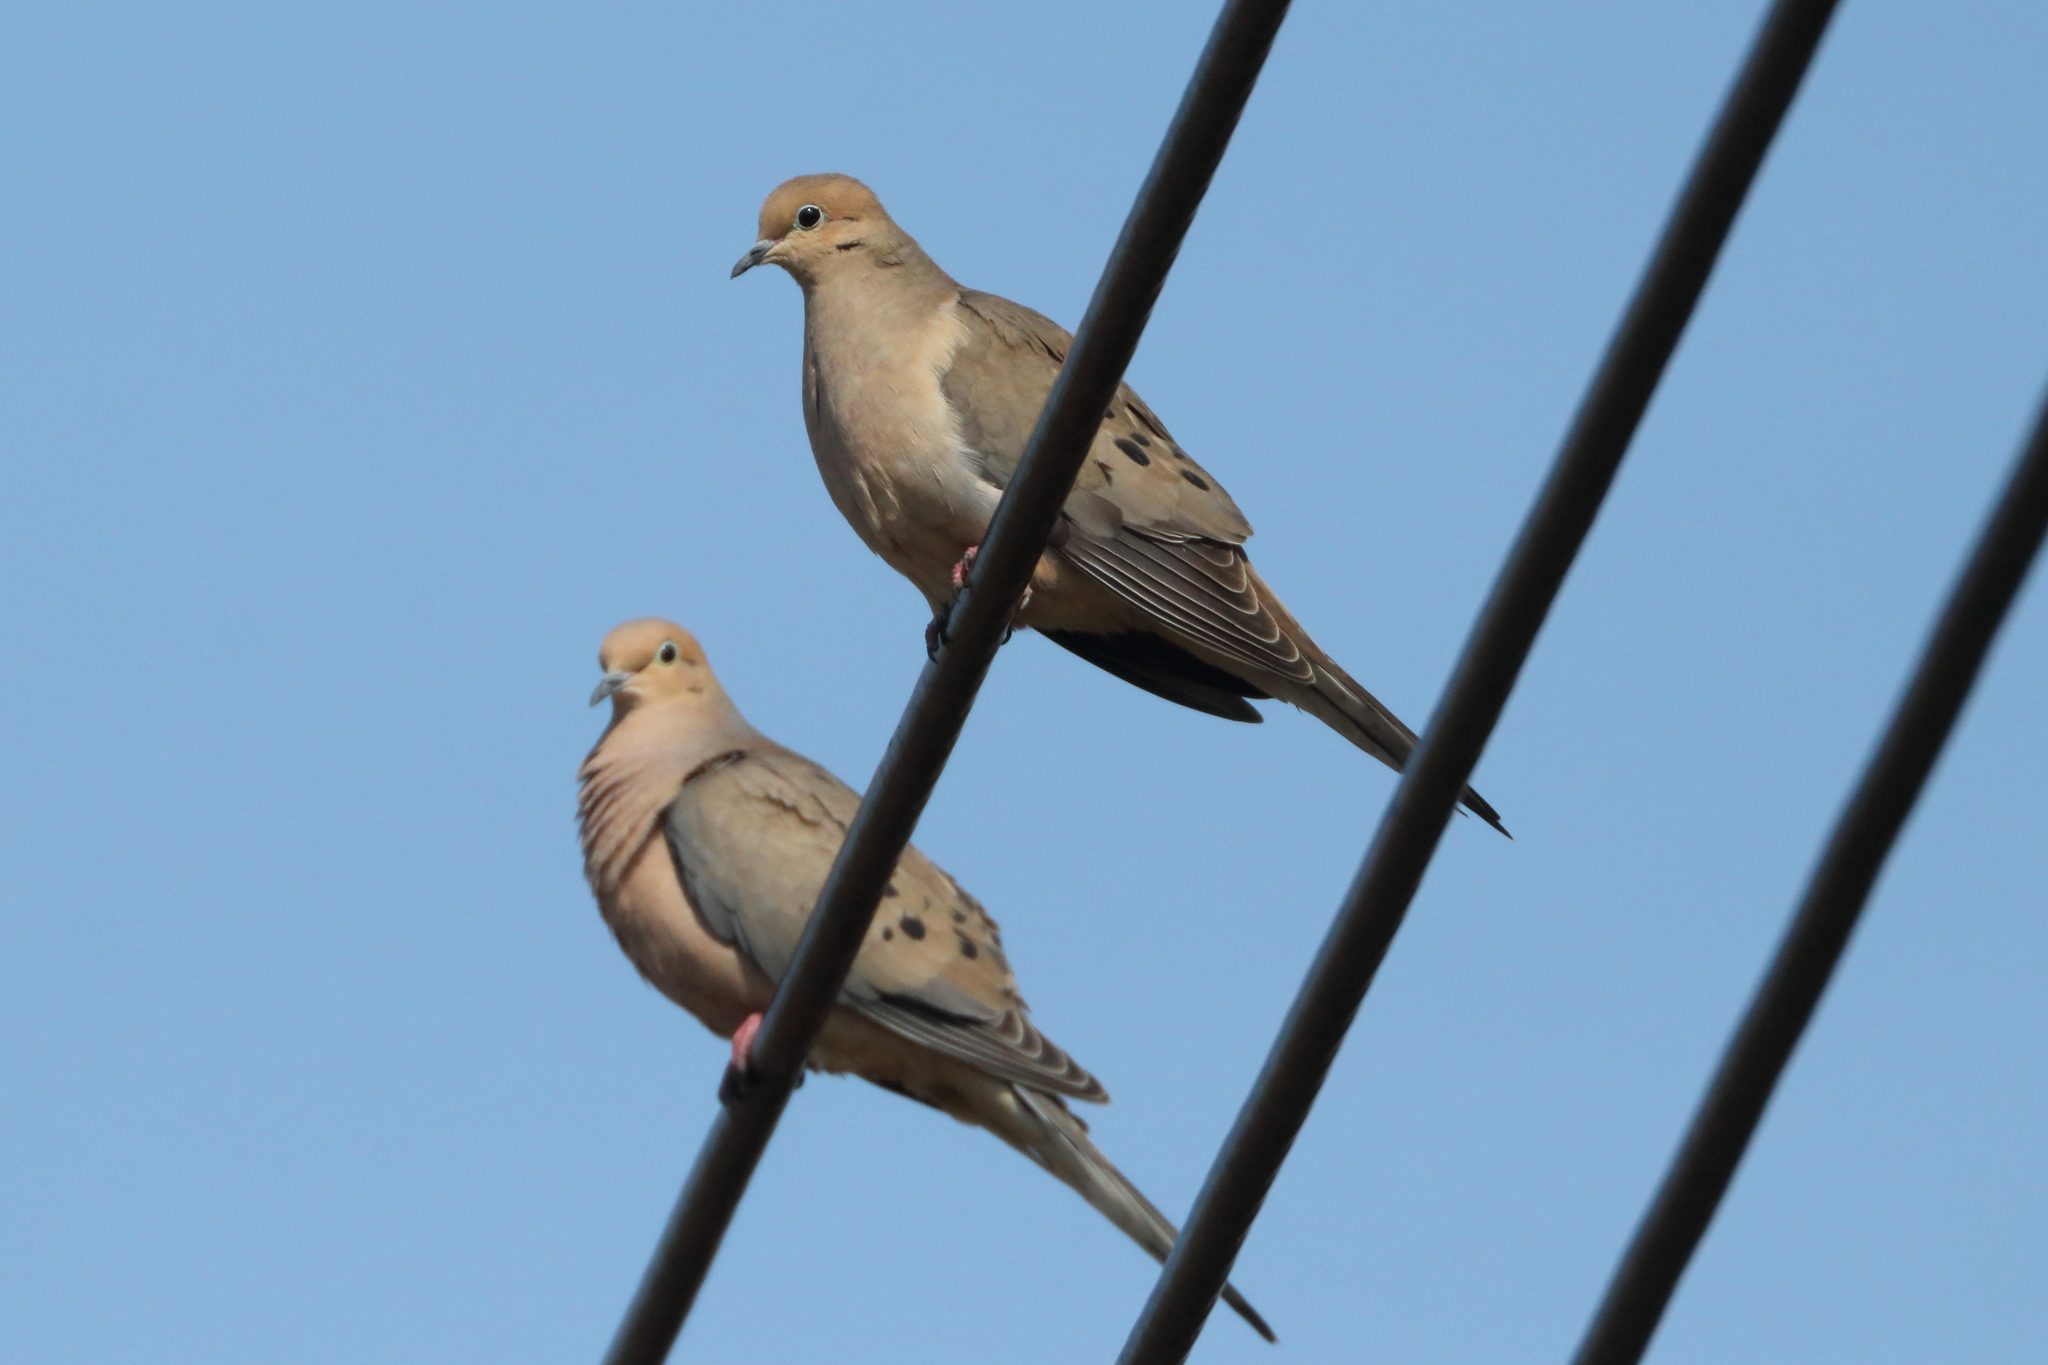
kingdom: Animalia
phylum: Chordata
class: Aves
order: Columbiformes
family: Columbidae
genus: Zenaida
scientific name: Zenaida macroura
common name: Mourning dove
